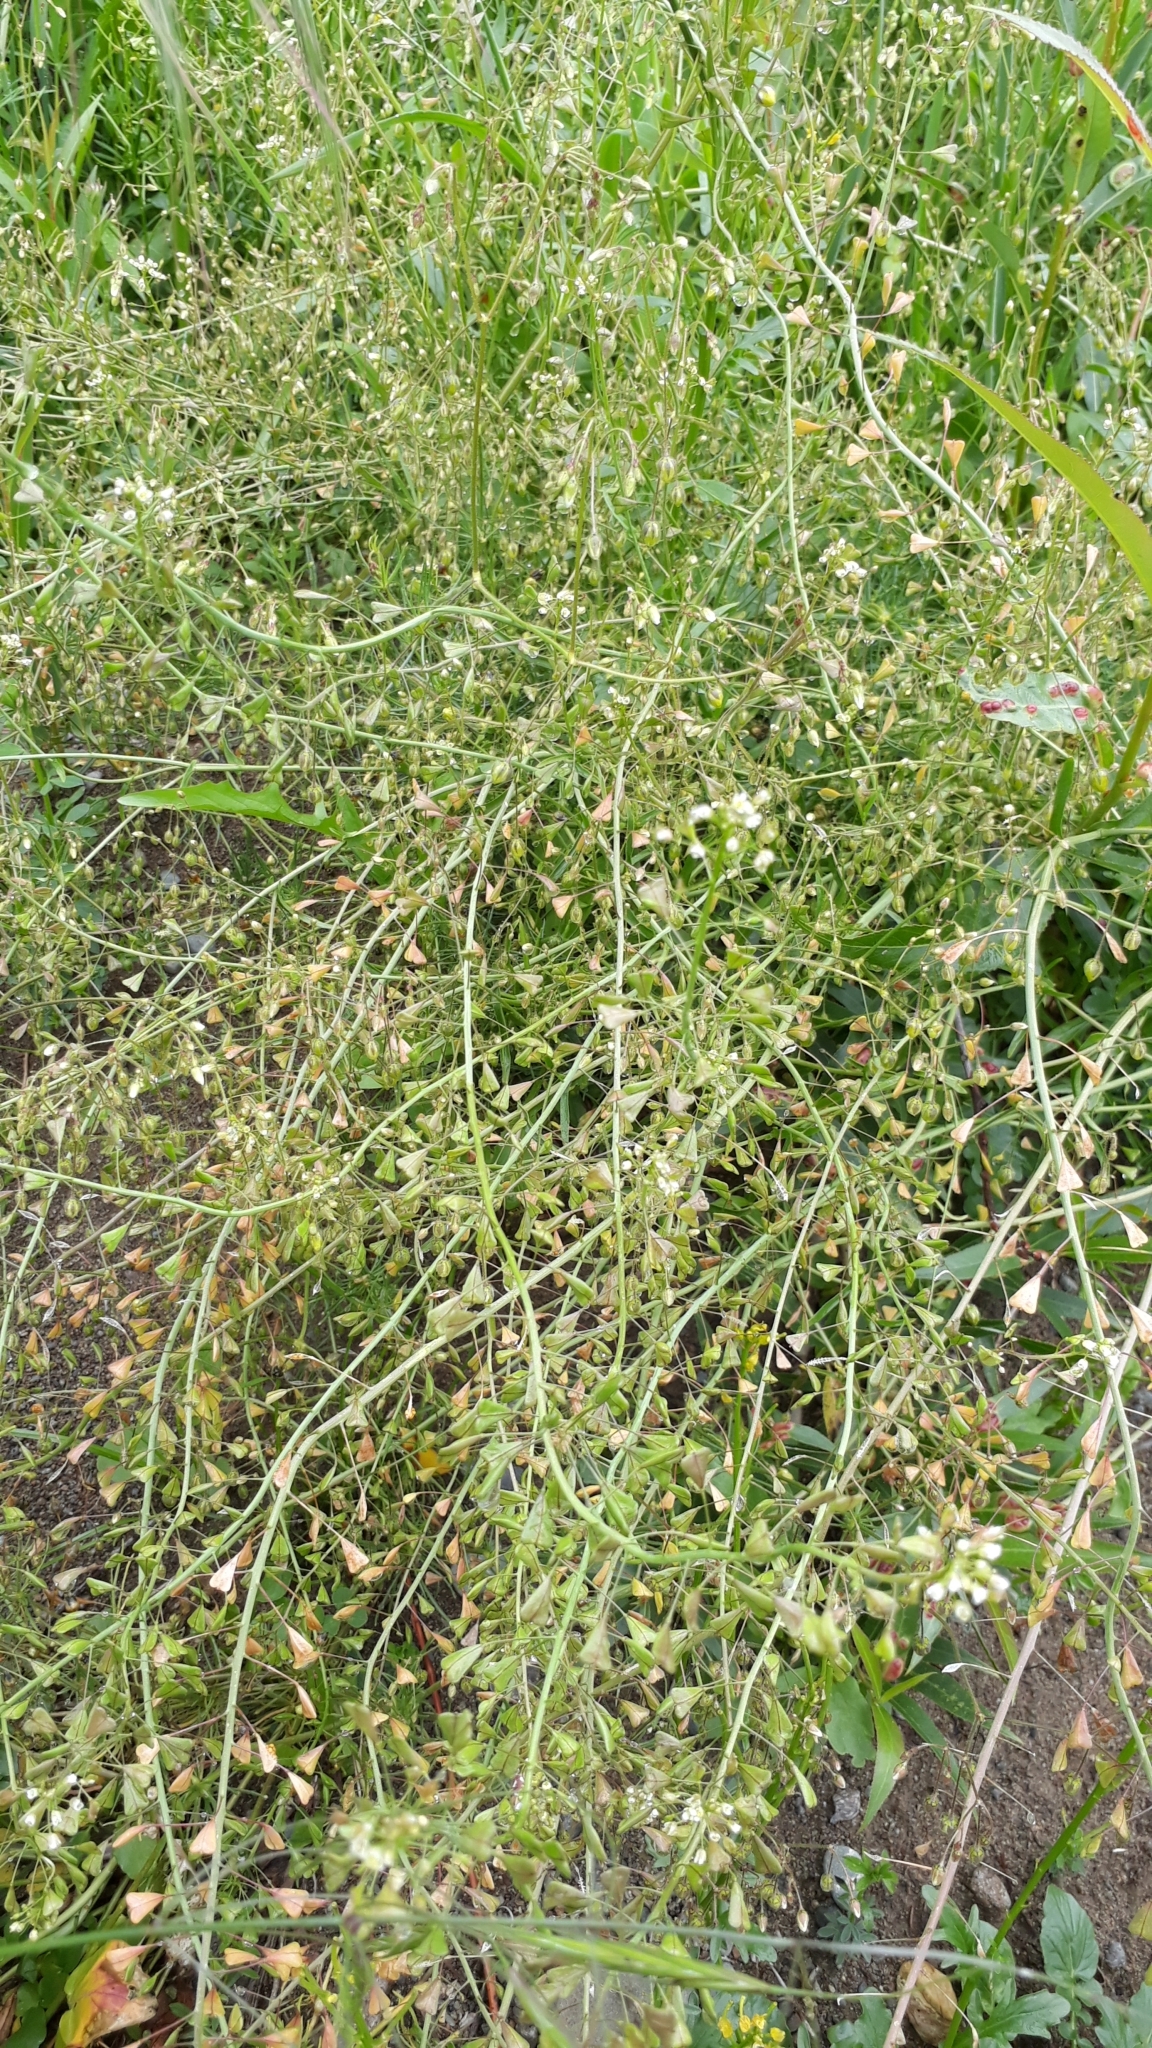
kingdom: Plantae
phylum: Tracheophyta
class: Magnoliopsida
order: Brassicales
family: Brassicaceae
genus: Capsella
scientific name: Capsella bursa-pastoris
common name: Shepherd's purse
